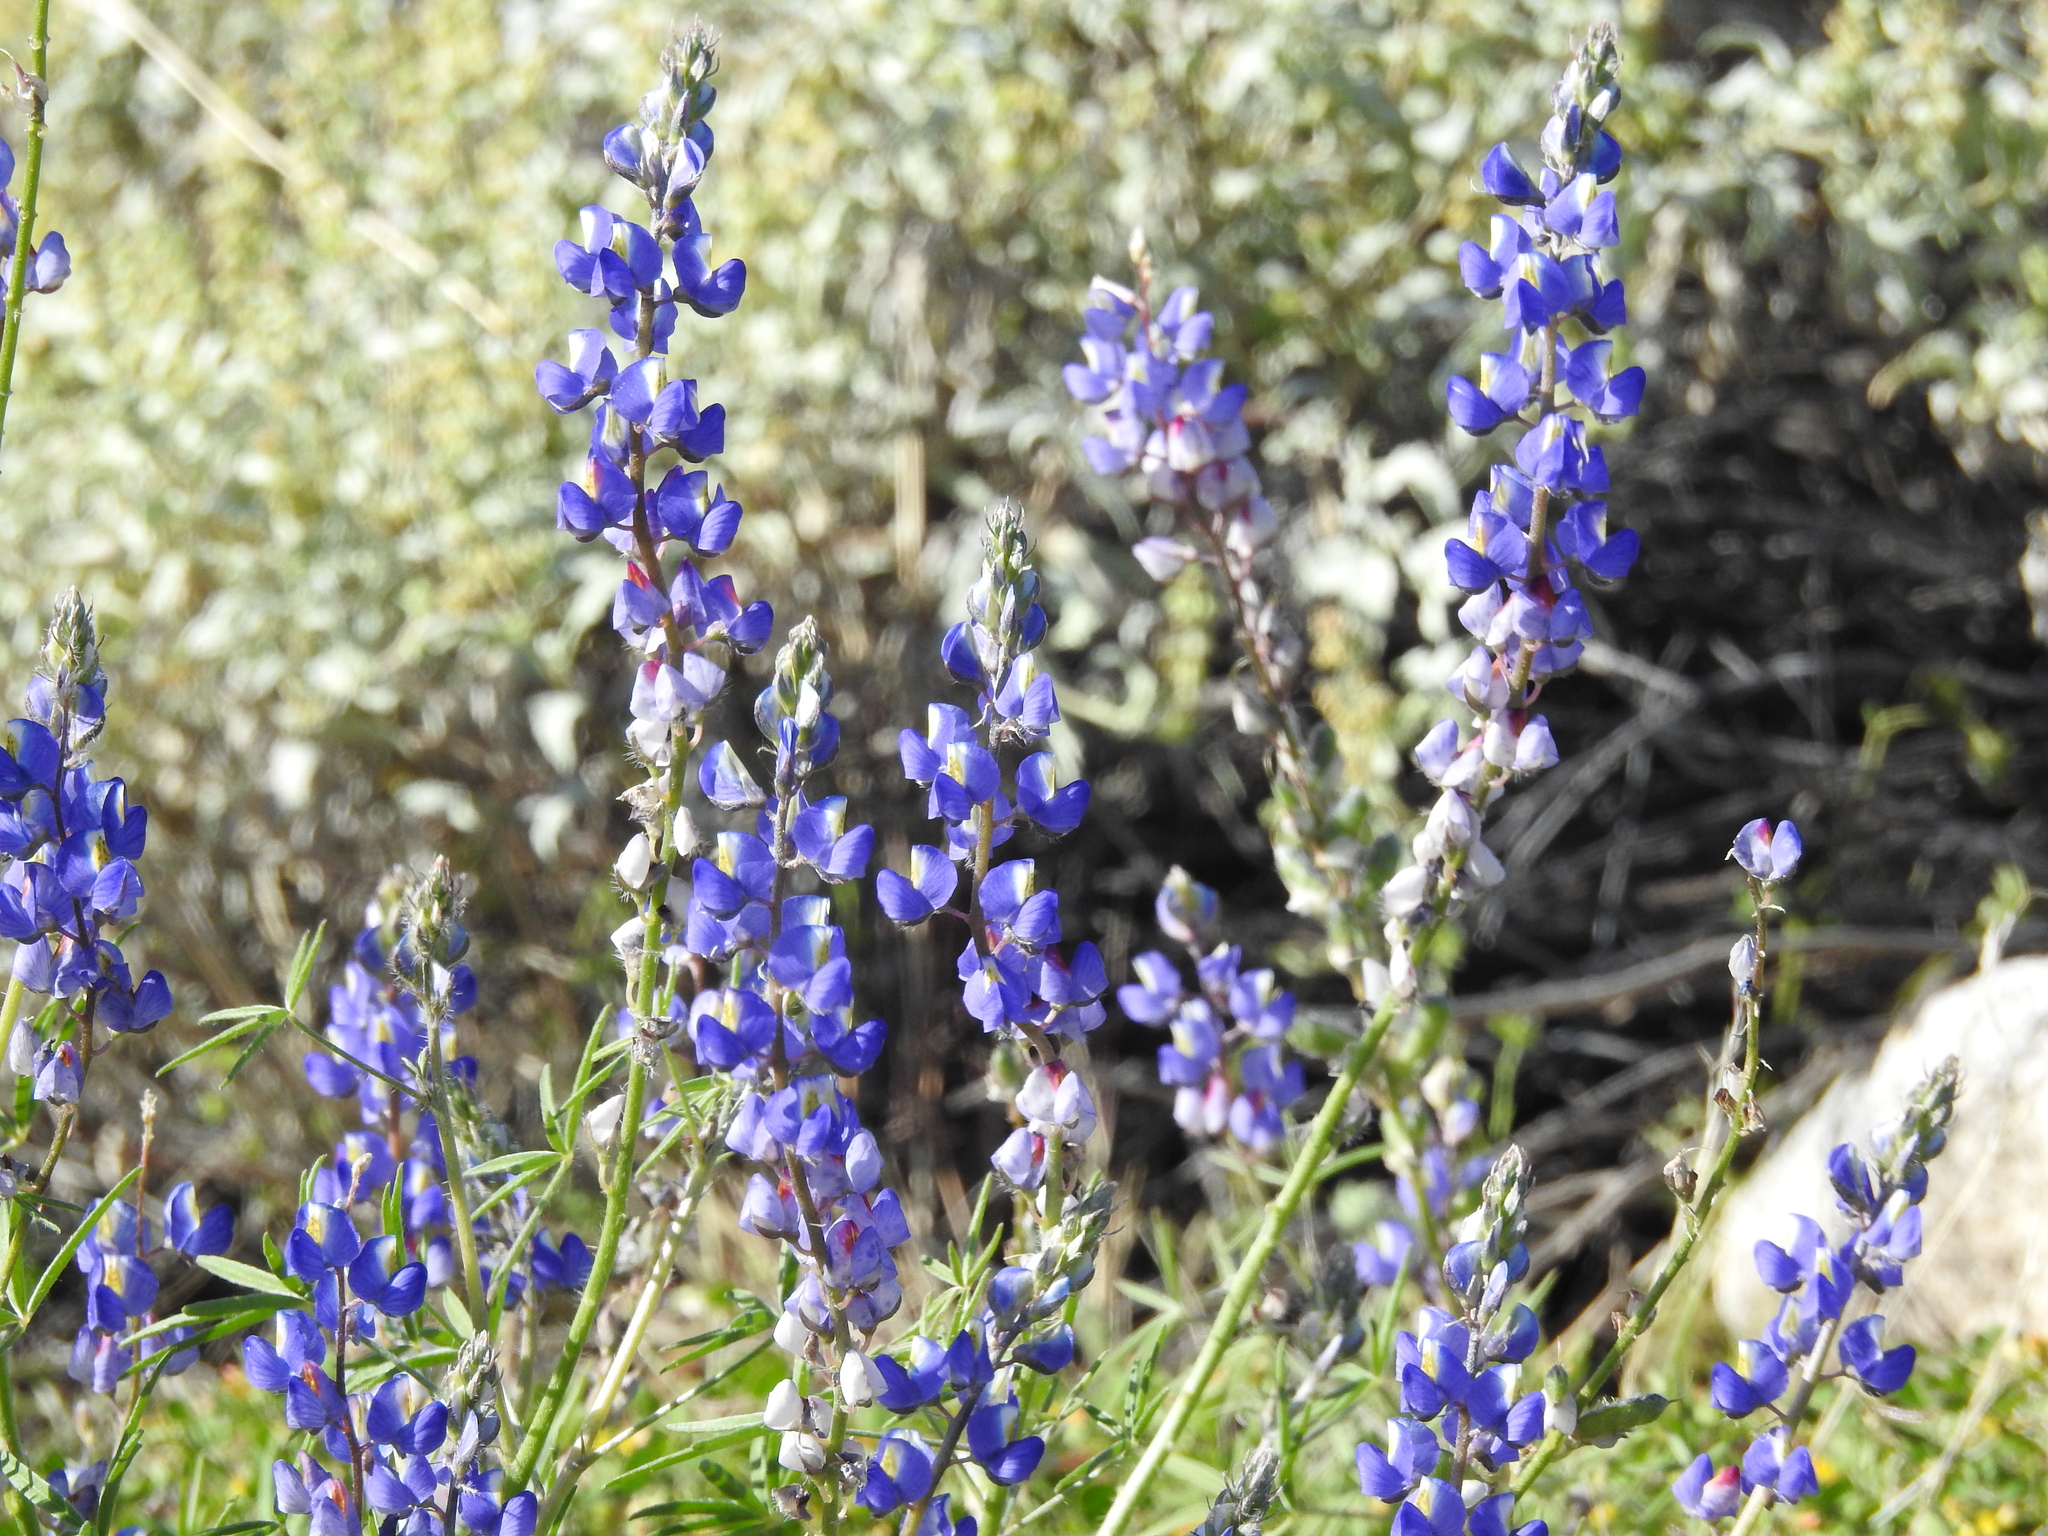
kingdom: Plantae
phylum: Tracheophyta
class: Magnoliopsida
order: Fabales
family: Fabaceae
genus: Lupinus
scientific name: Lupinus sparsiflorus
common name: Coulter's lupine
